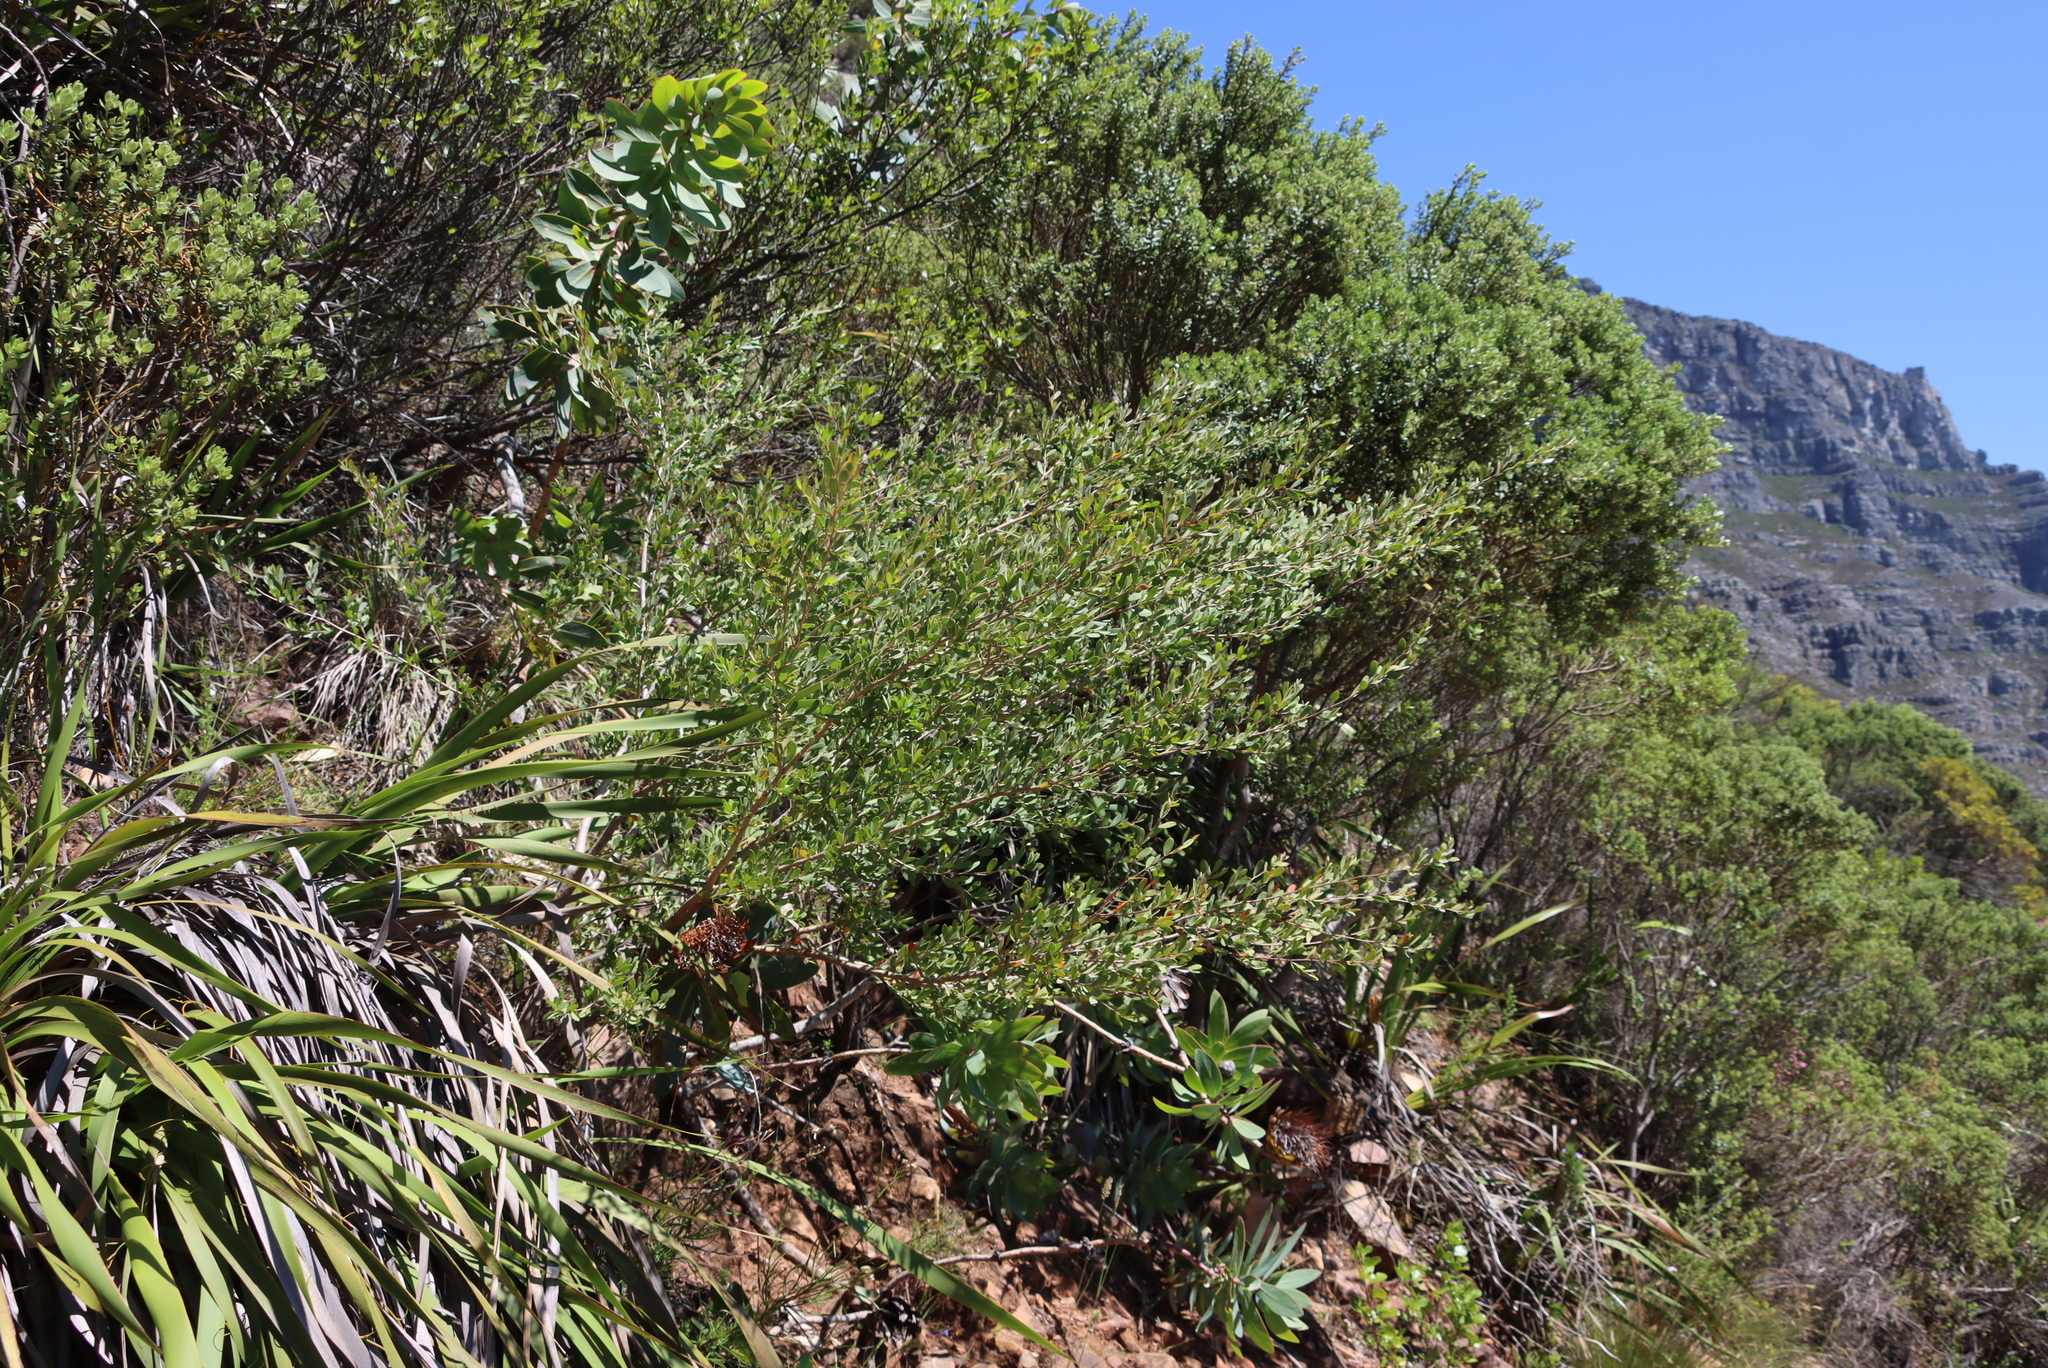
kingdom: Plantae
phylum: Tracheophyta
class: Magnoliopsida
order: Myrtales
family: Myrtaceae
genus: Leptospermum
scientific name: Leptospermum laevigatum
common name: Australian teatree
